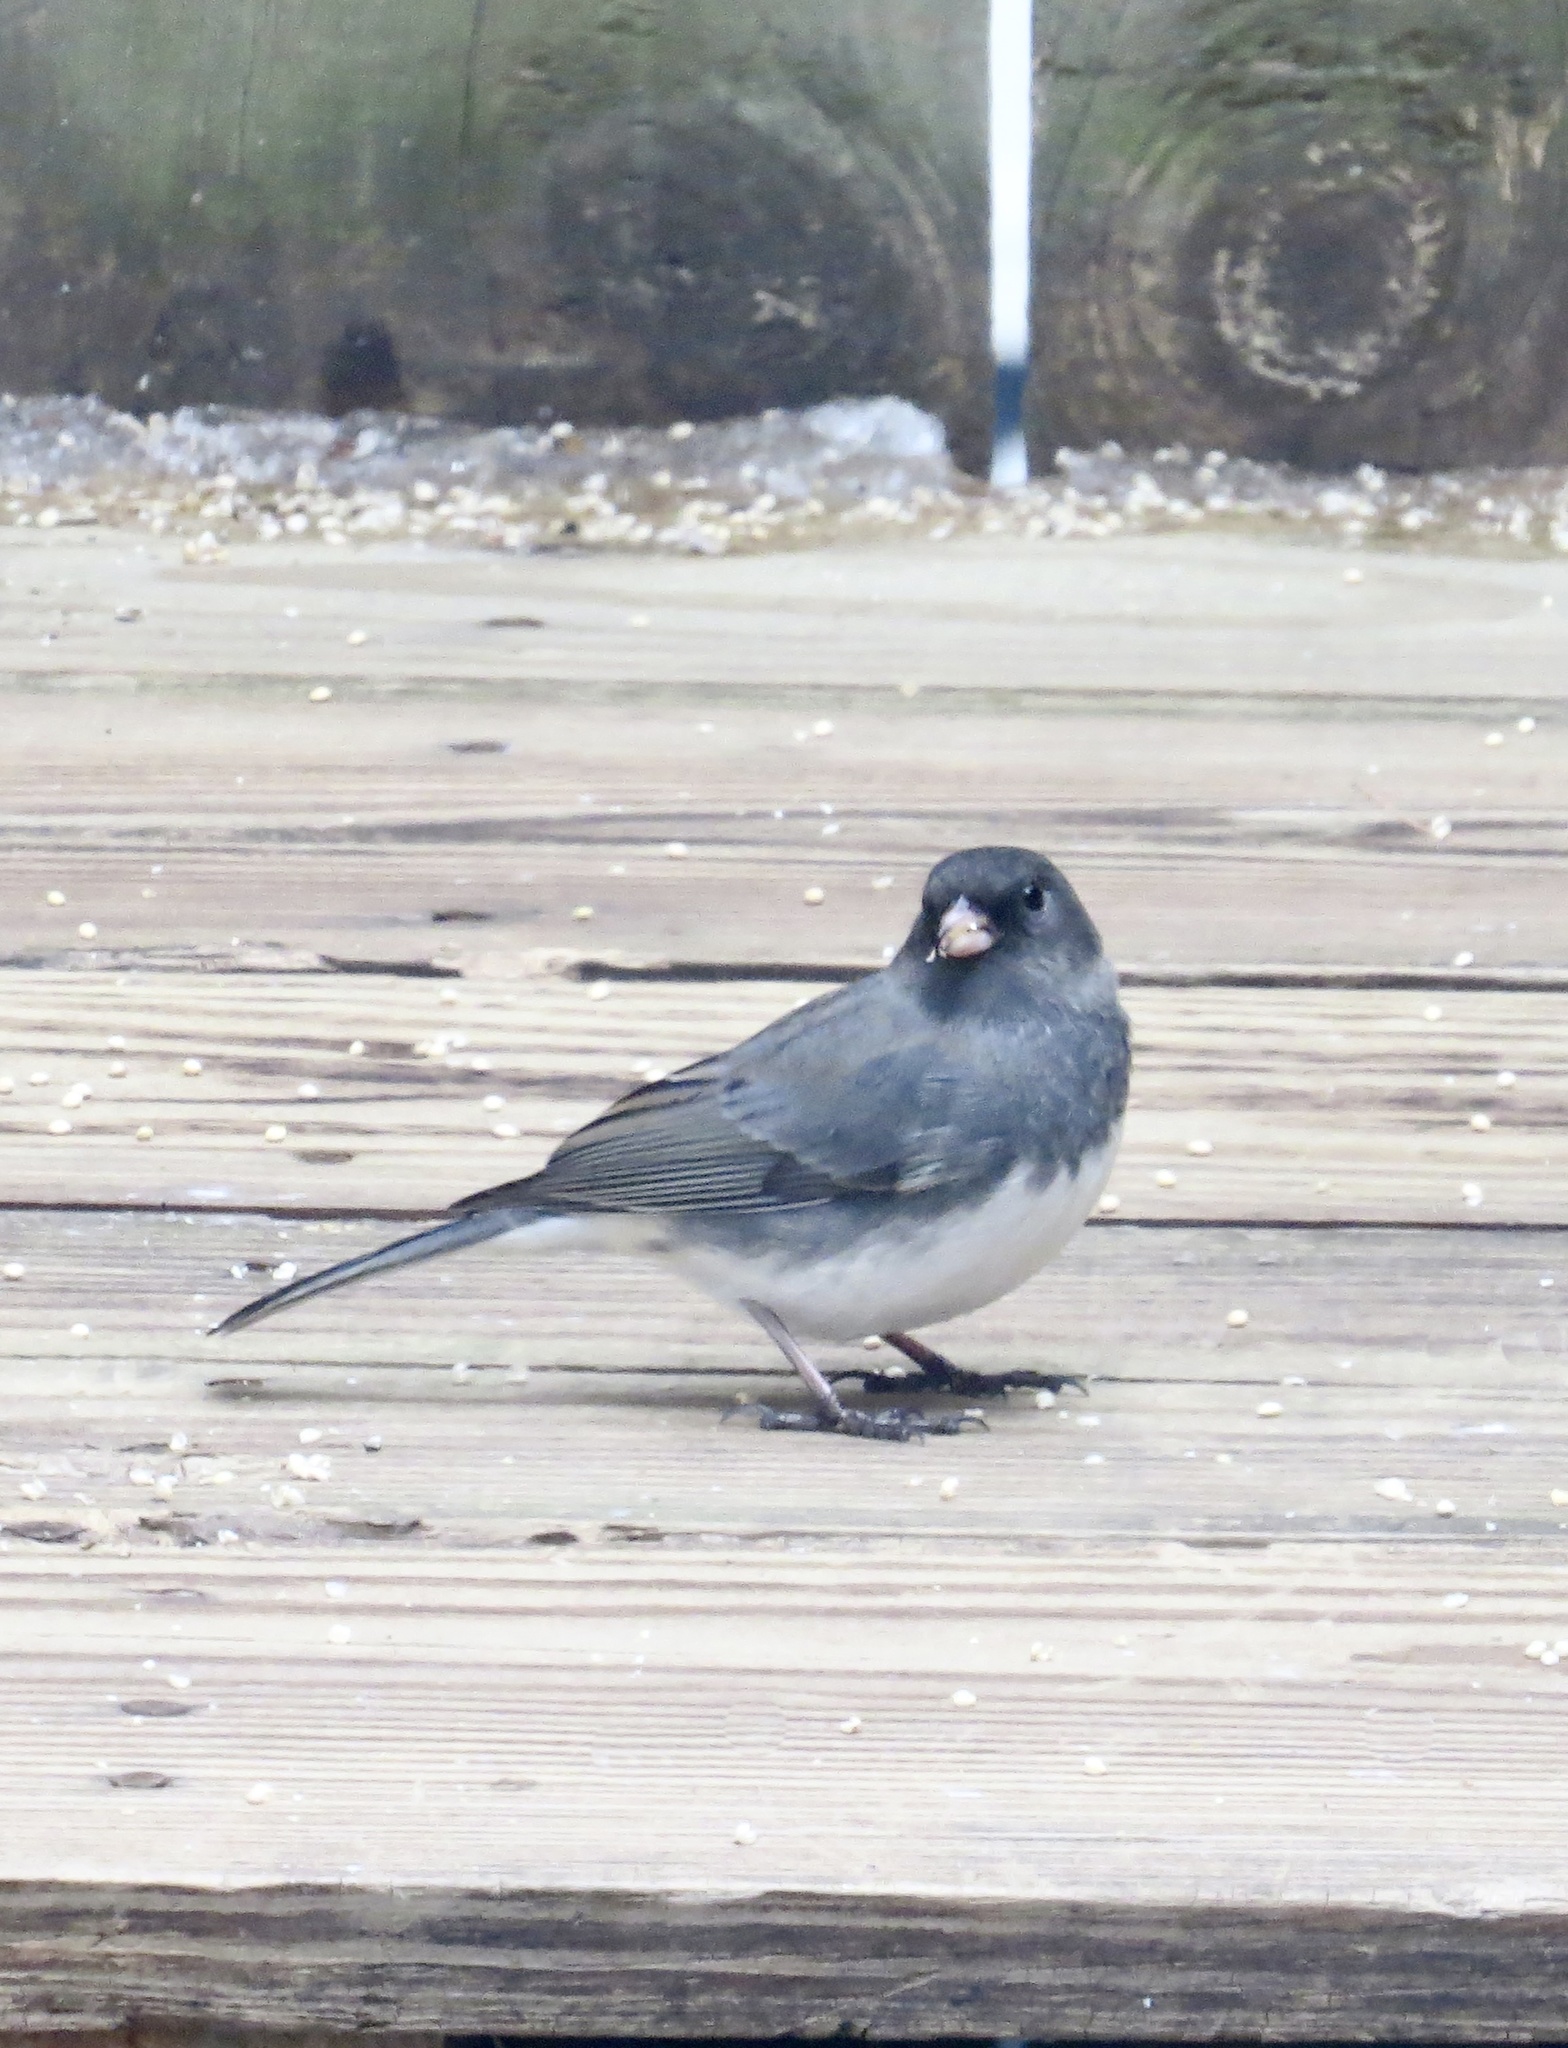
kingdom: Animalia
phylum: Chordata
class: Aves
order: Passeriformes
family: Passerellidae
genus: Junco
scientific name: Junco hyemalis
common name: Dark-eyed junco
